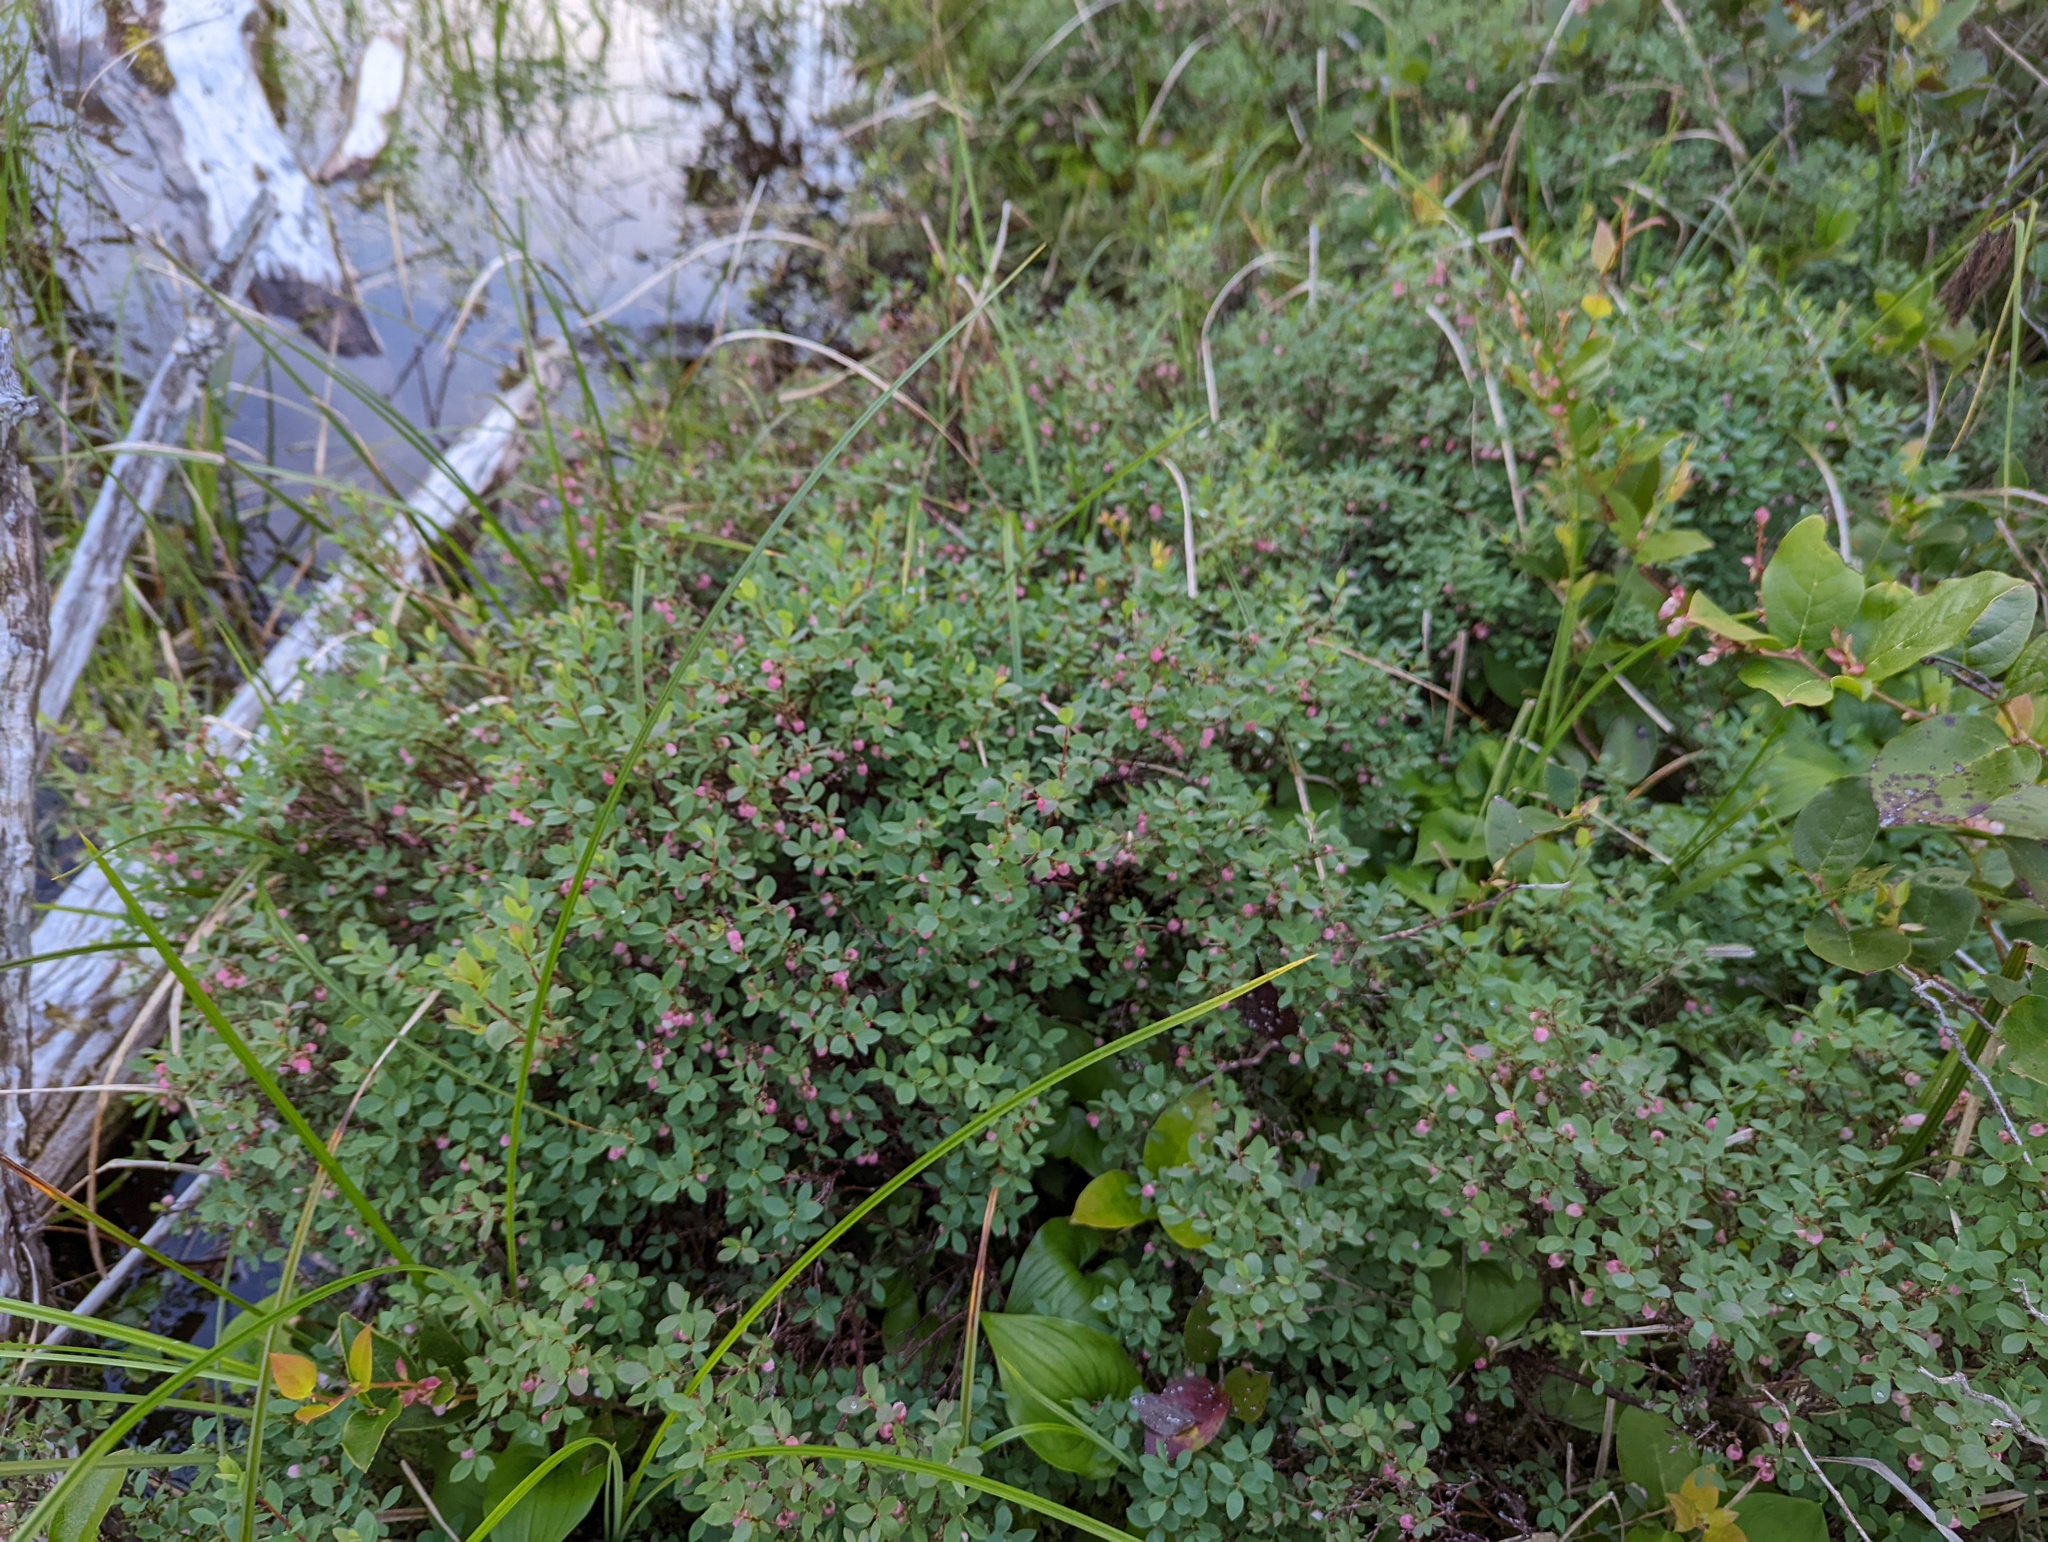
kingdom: Plantae
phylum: Tracheophyta
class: Magnoliopsida
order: Ericales
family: Ericaceae
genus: Vaccinium
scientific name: Vaccinium uliginosum
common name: Bog bilberry
